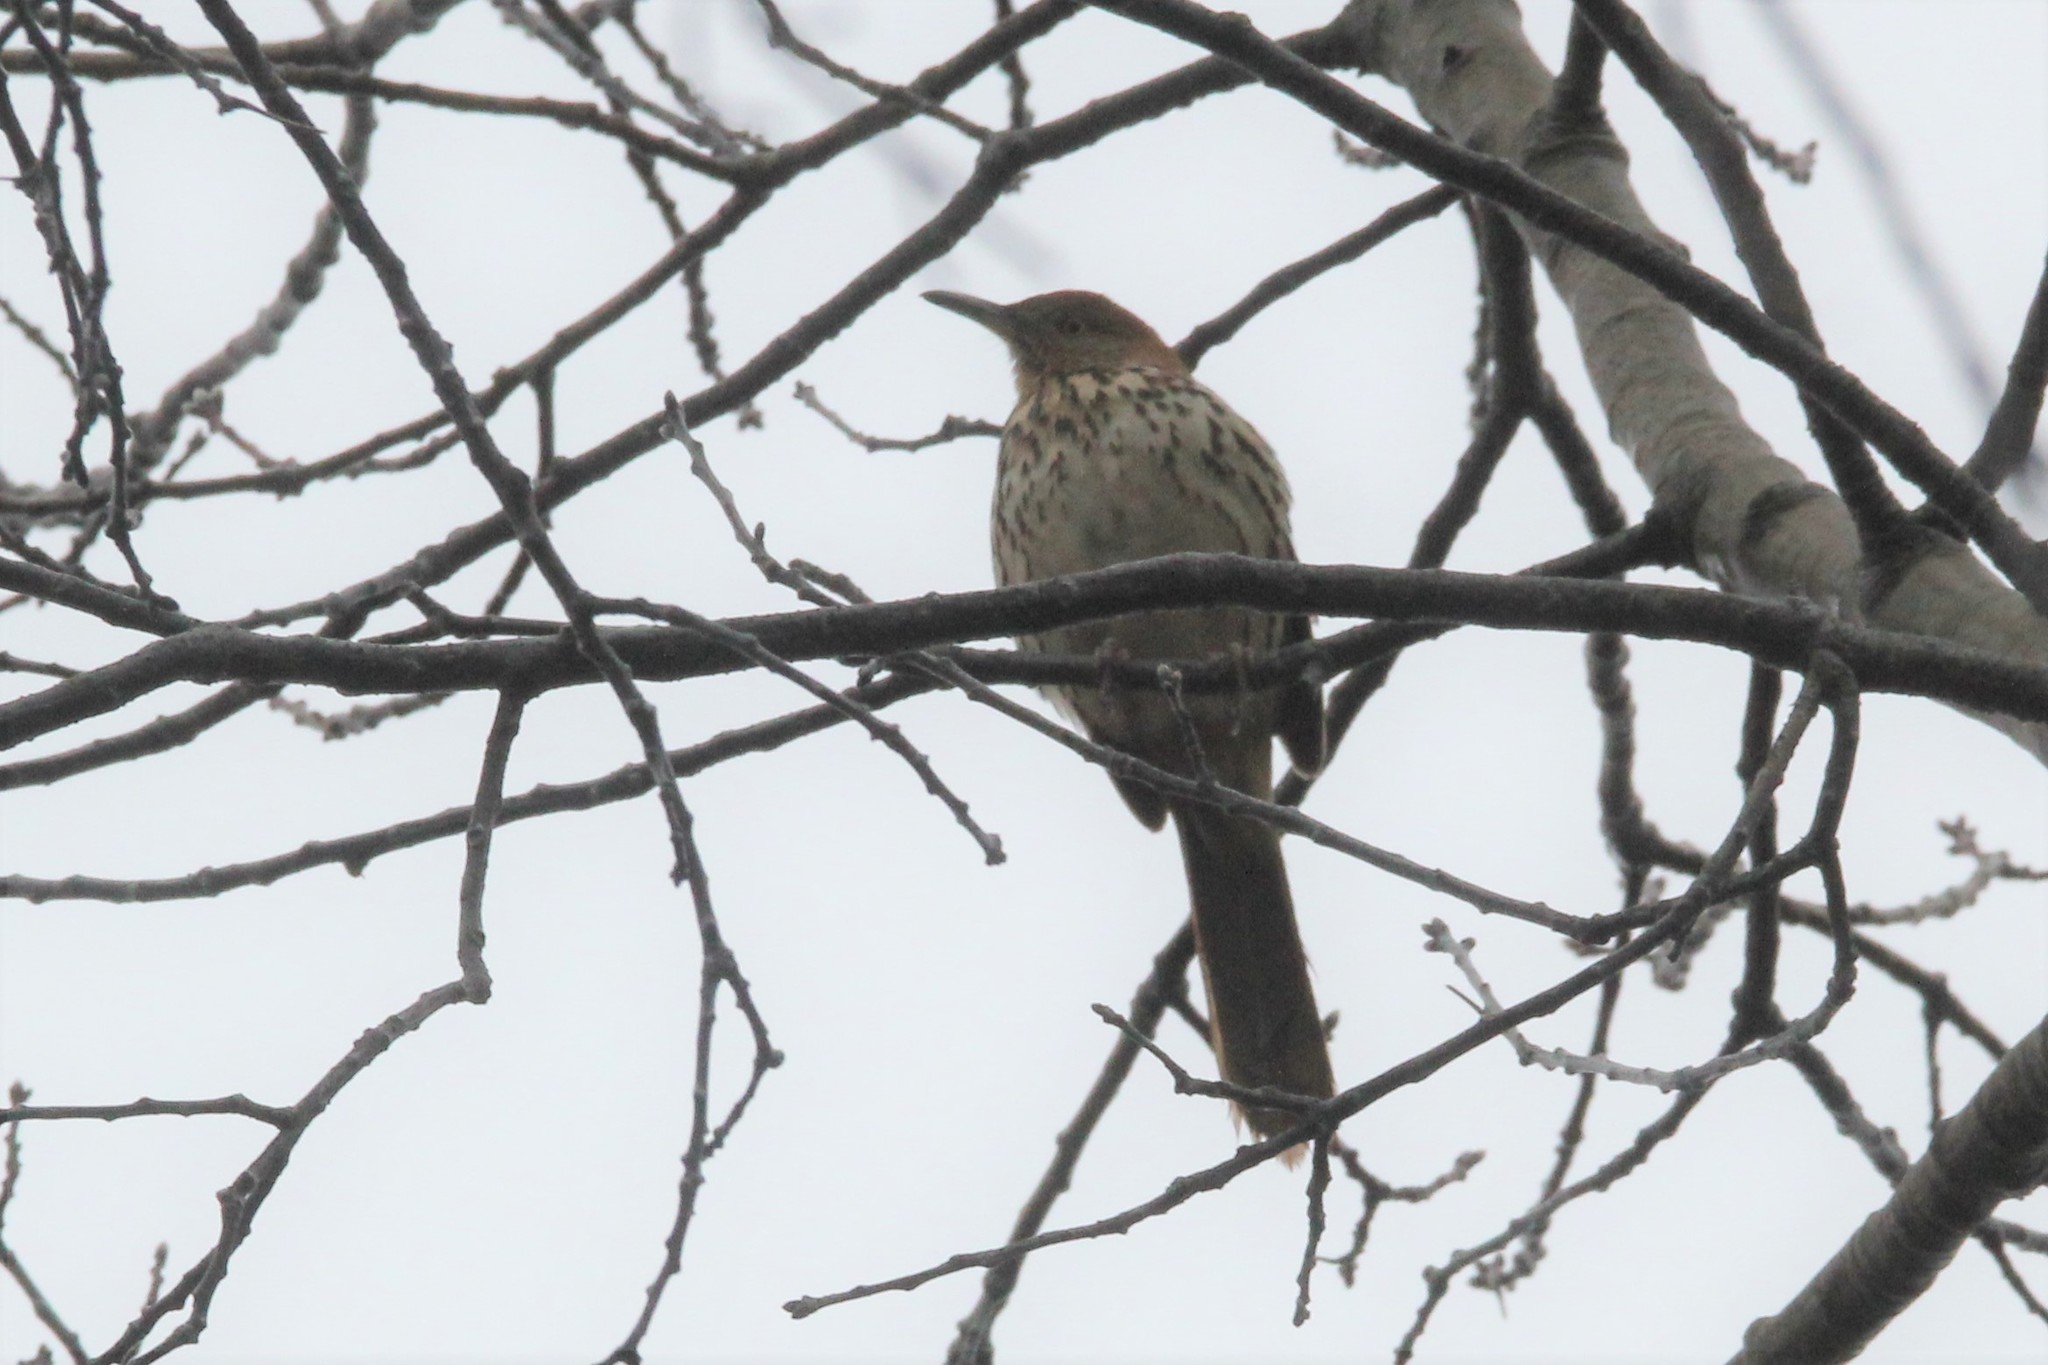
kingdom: Animalia
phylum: Chordata
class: Aves
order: Passeriformes
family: Mimidae
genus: Toxostoma
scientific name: Toxostoma rufum
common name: Brown thrasher
